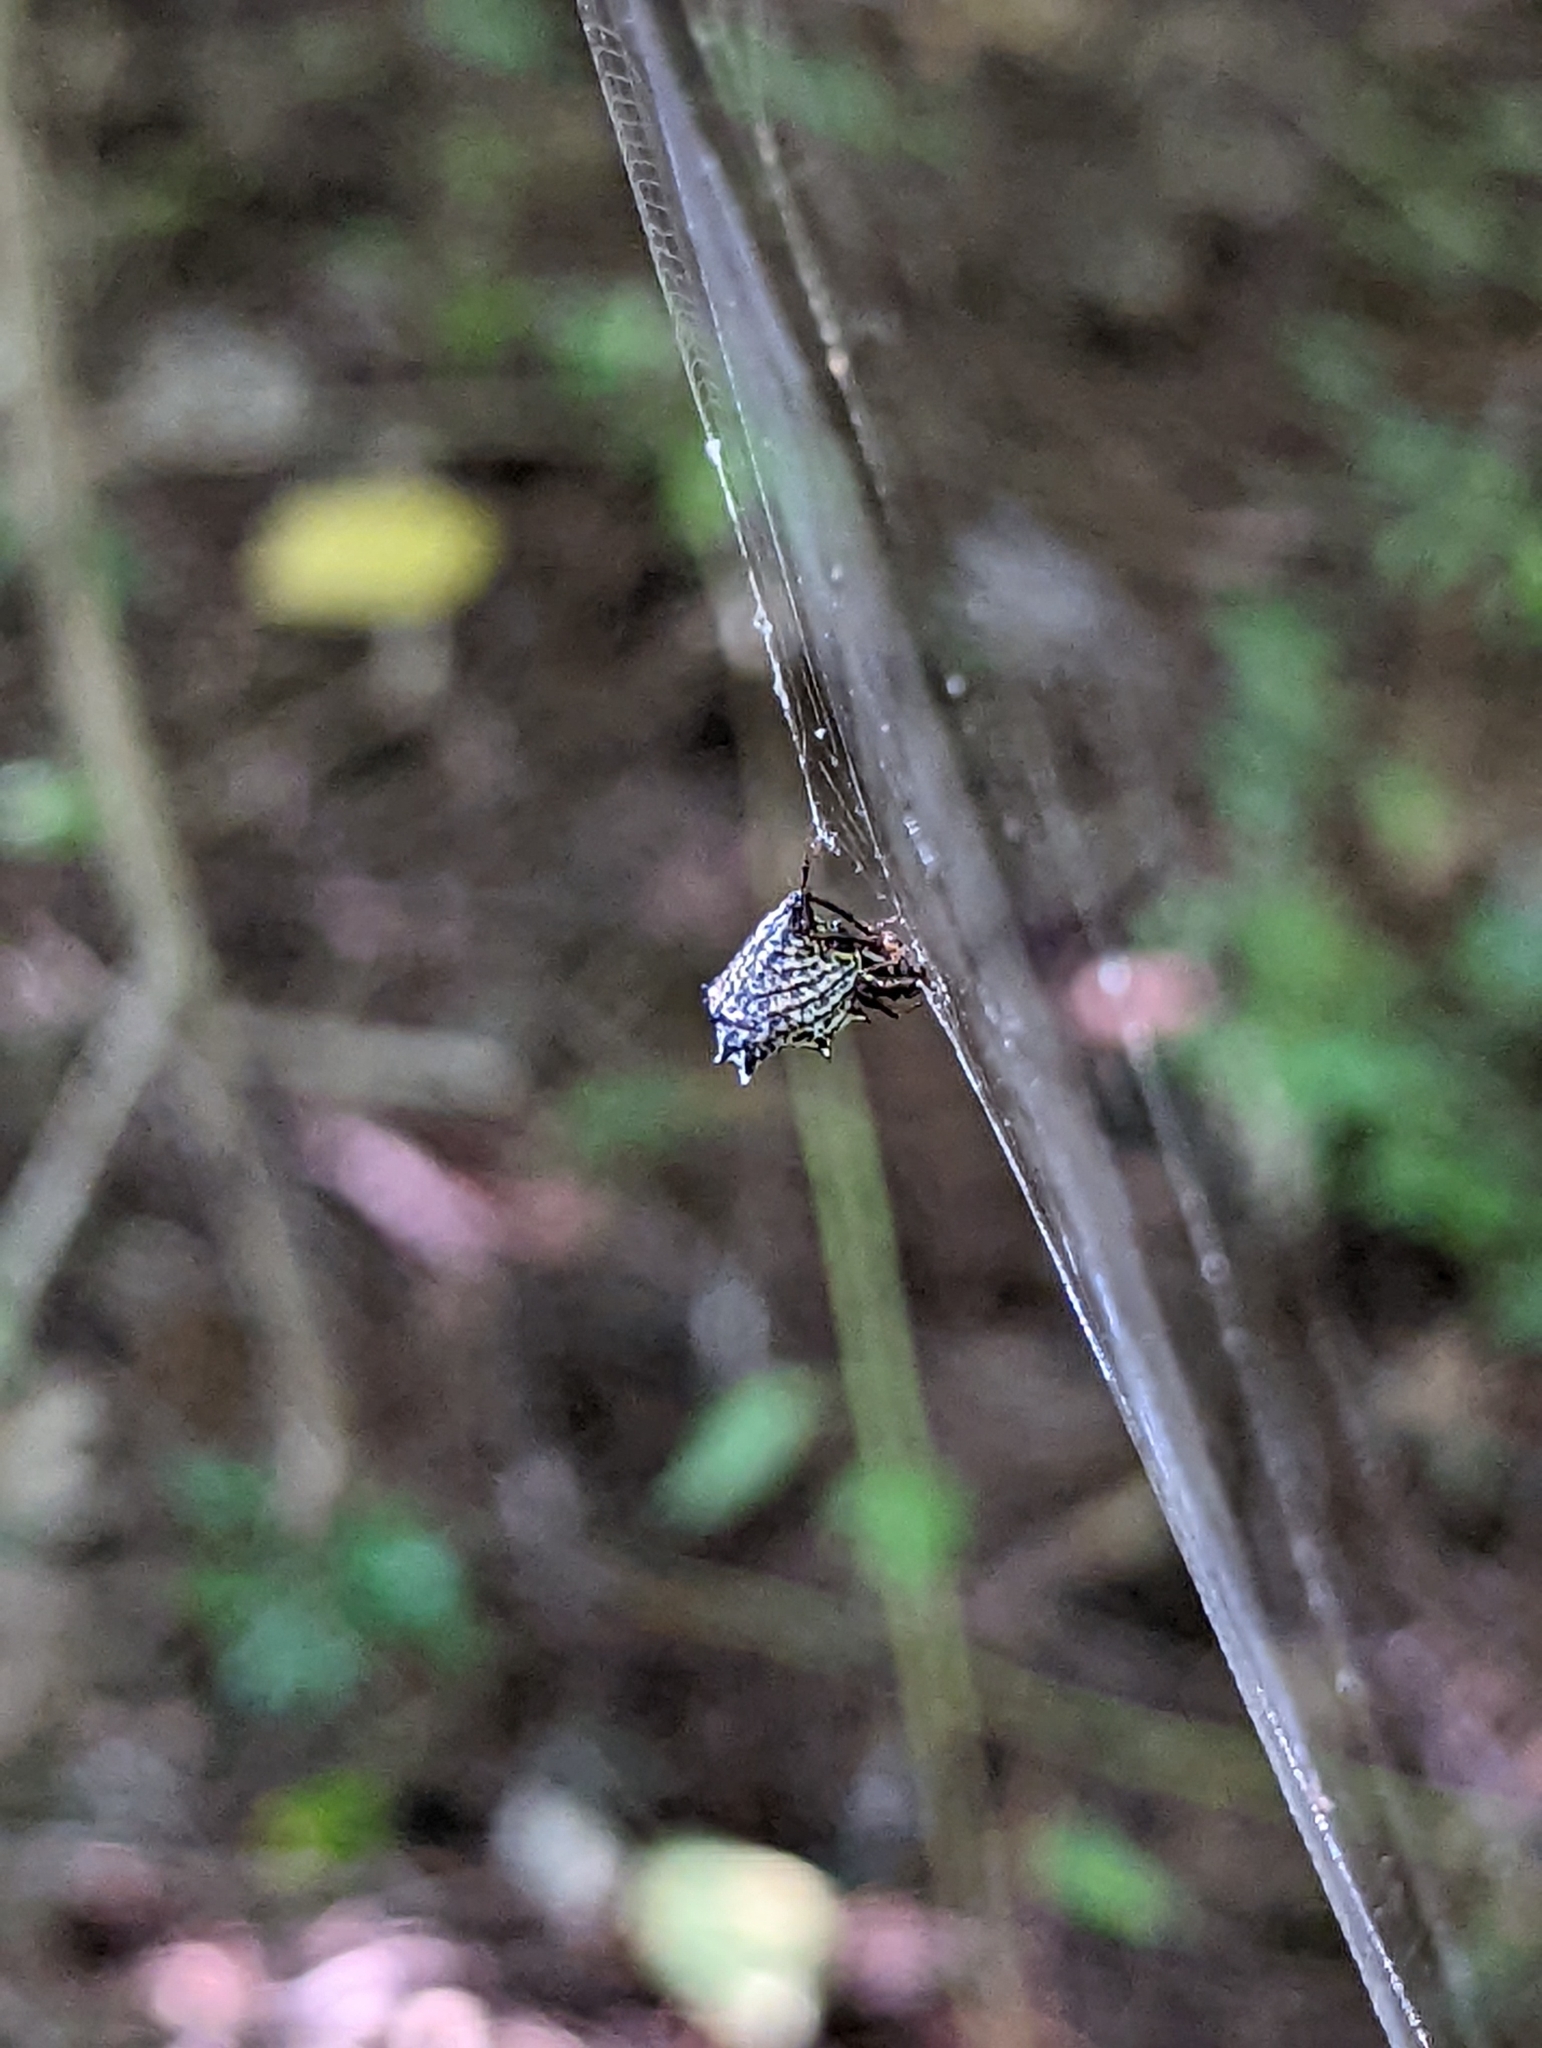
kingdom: Animalia
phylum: Arthropoda
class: Arachnida
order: Araneae
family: Araneidae
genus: Micrathena
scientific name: Micrathena gracilis
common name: Orb weavers
